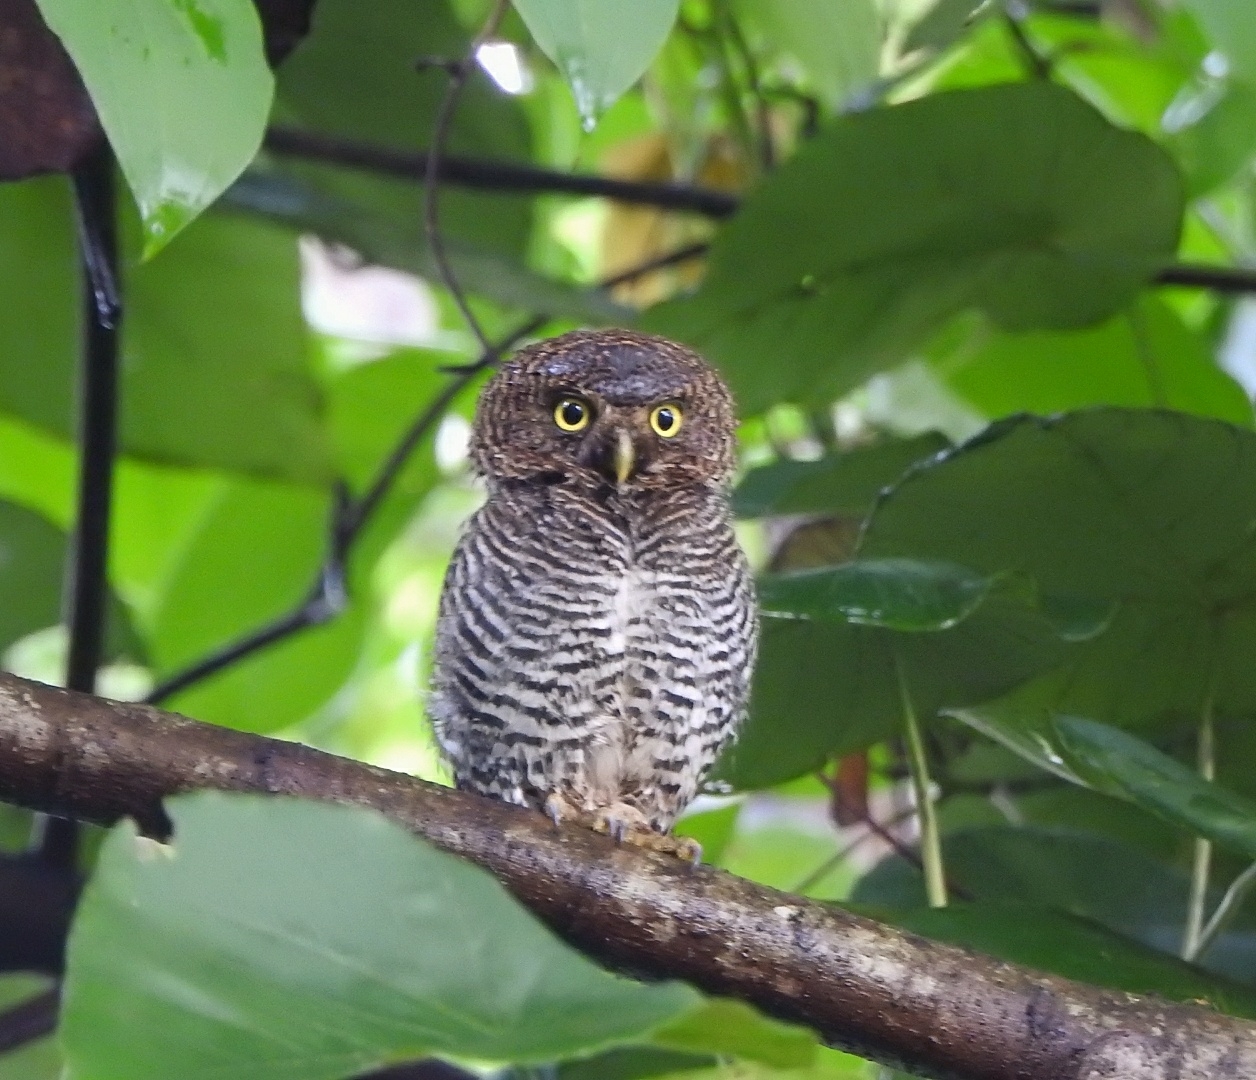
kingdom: Animalia
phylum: Chordata
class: Aves
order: Strigiformes
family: Strigidae
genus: Glaucidium
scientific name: Glaucidium radiatum
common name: Jungle owlet
